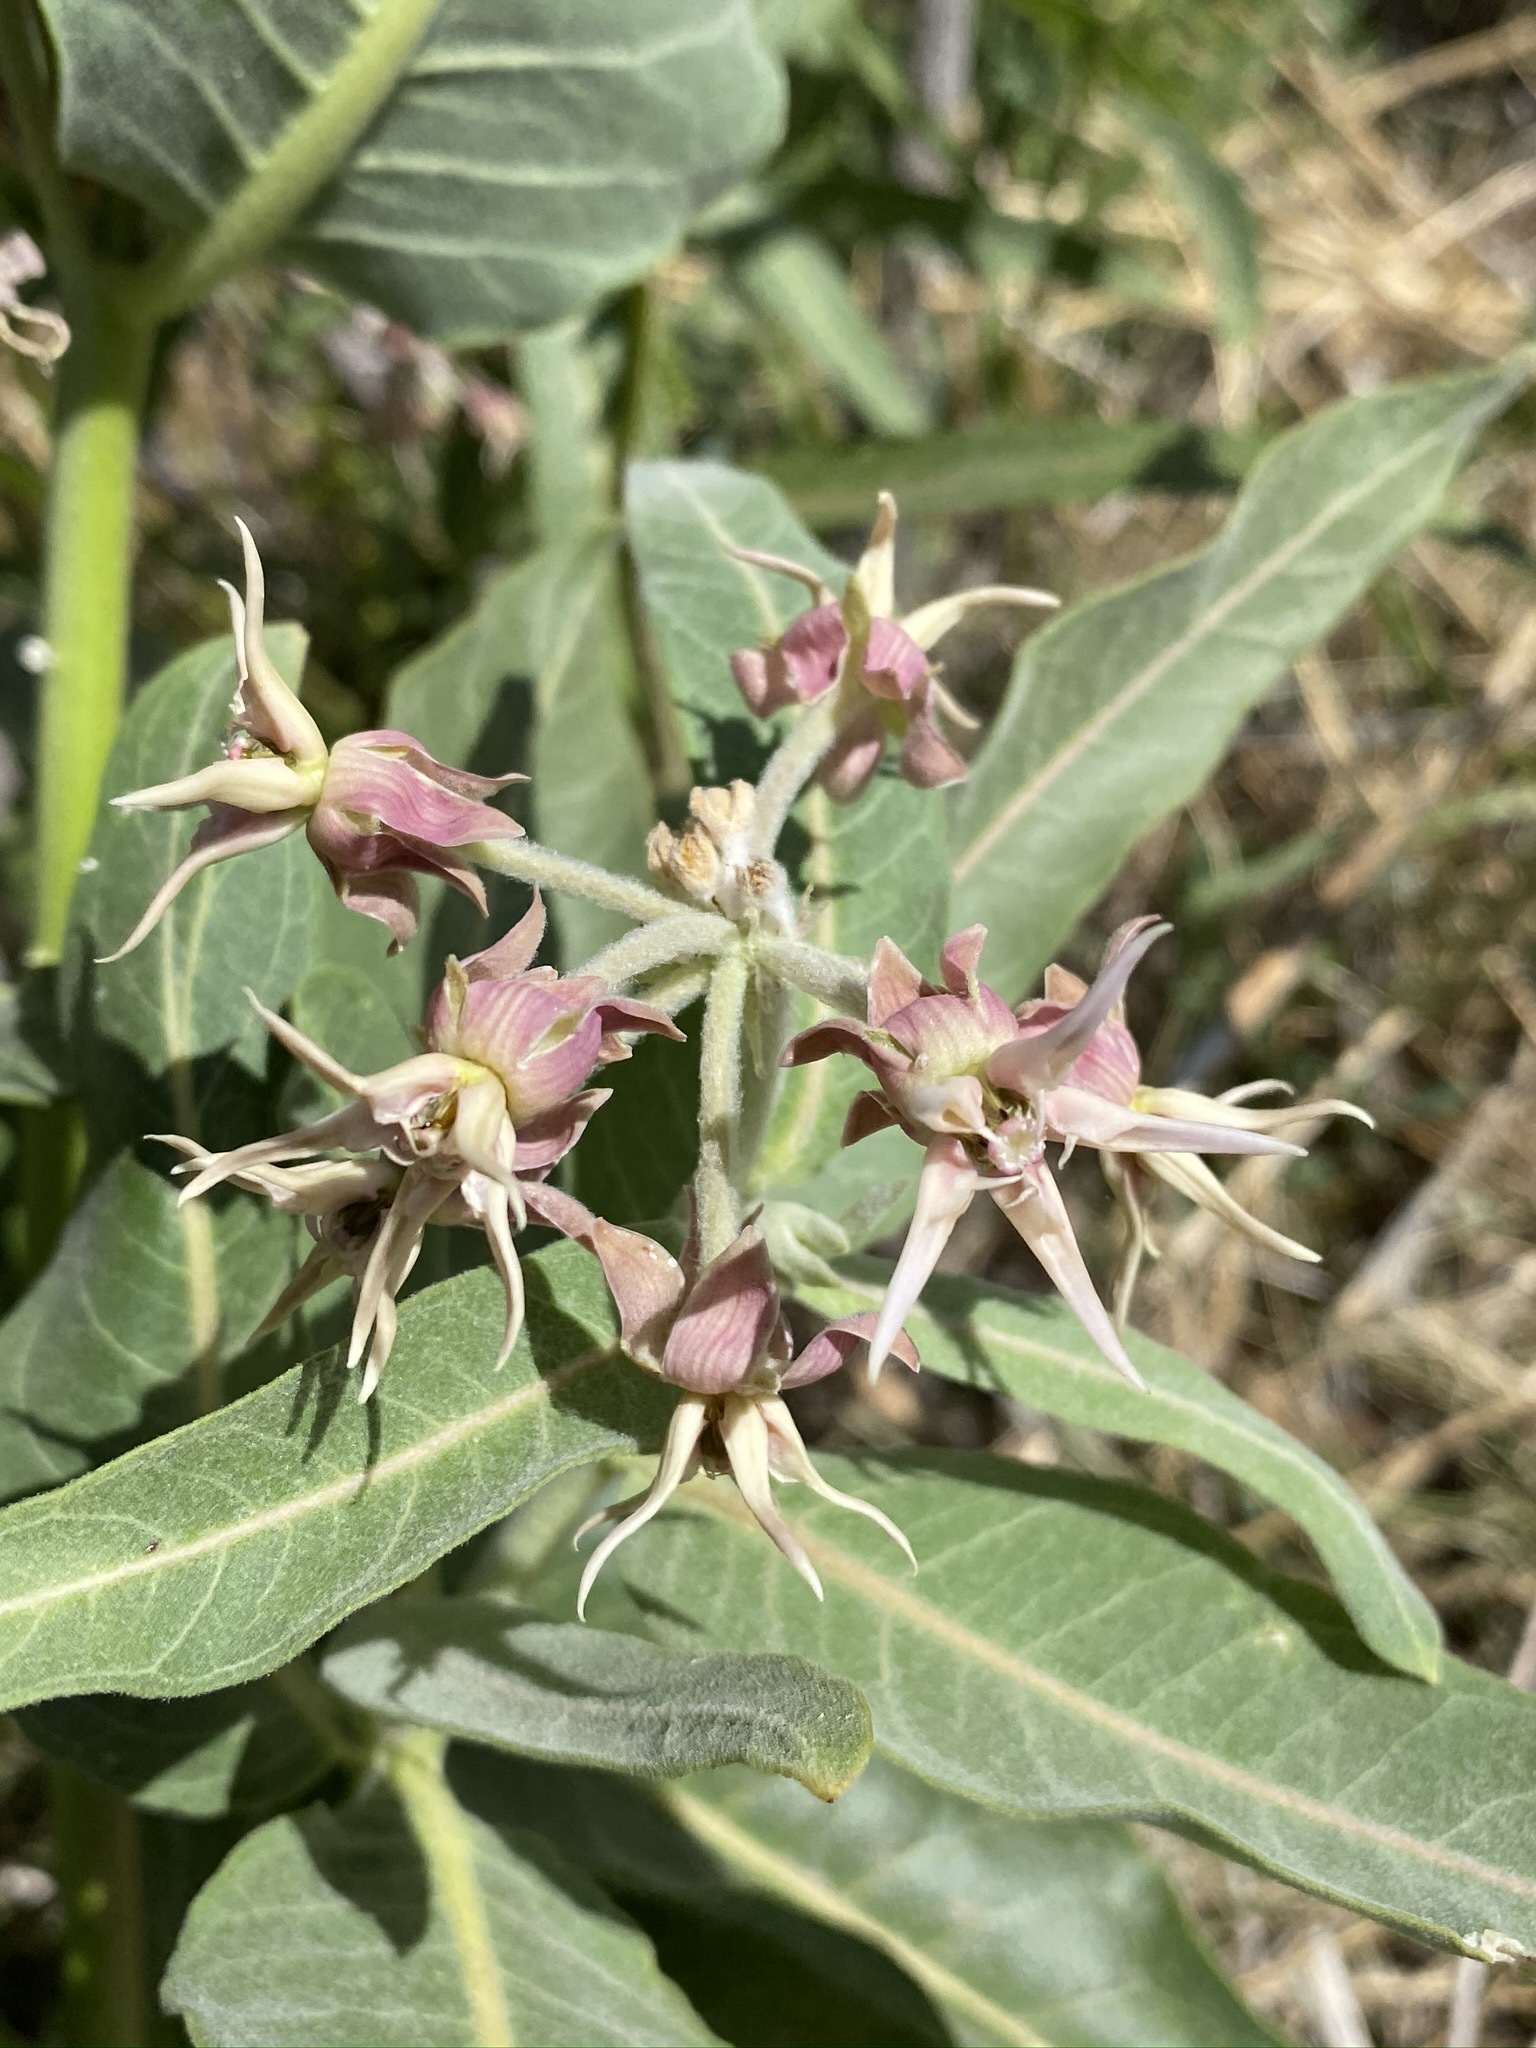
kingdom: Plantae
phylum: Tracheophyta
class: Magnoliopsida
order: Gentianales
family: Apocynaceae
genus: Asclepias
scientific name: Asclepias speciosa
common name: Showy milkweed
